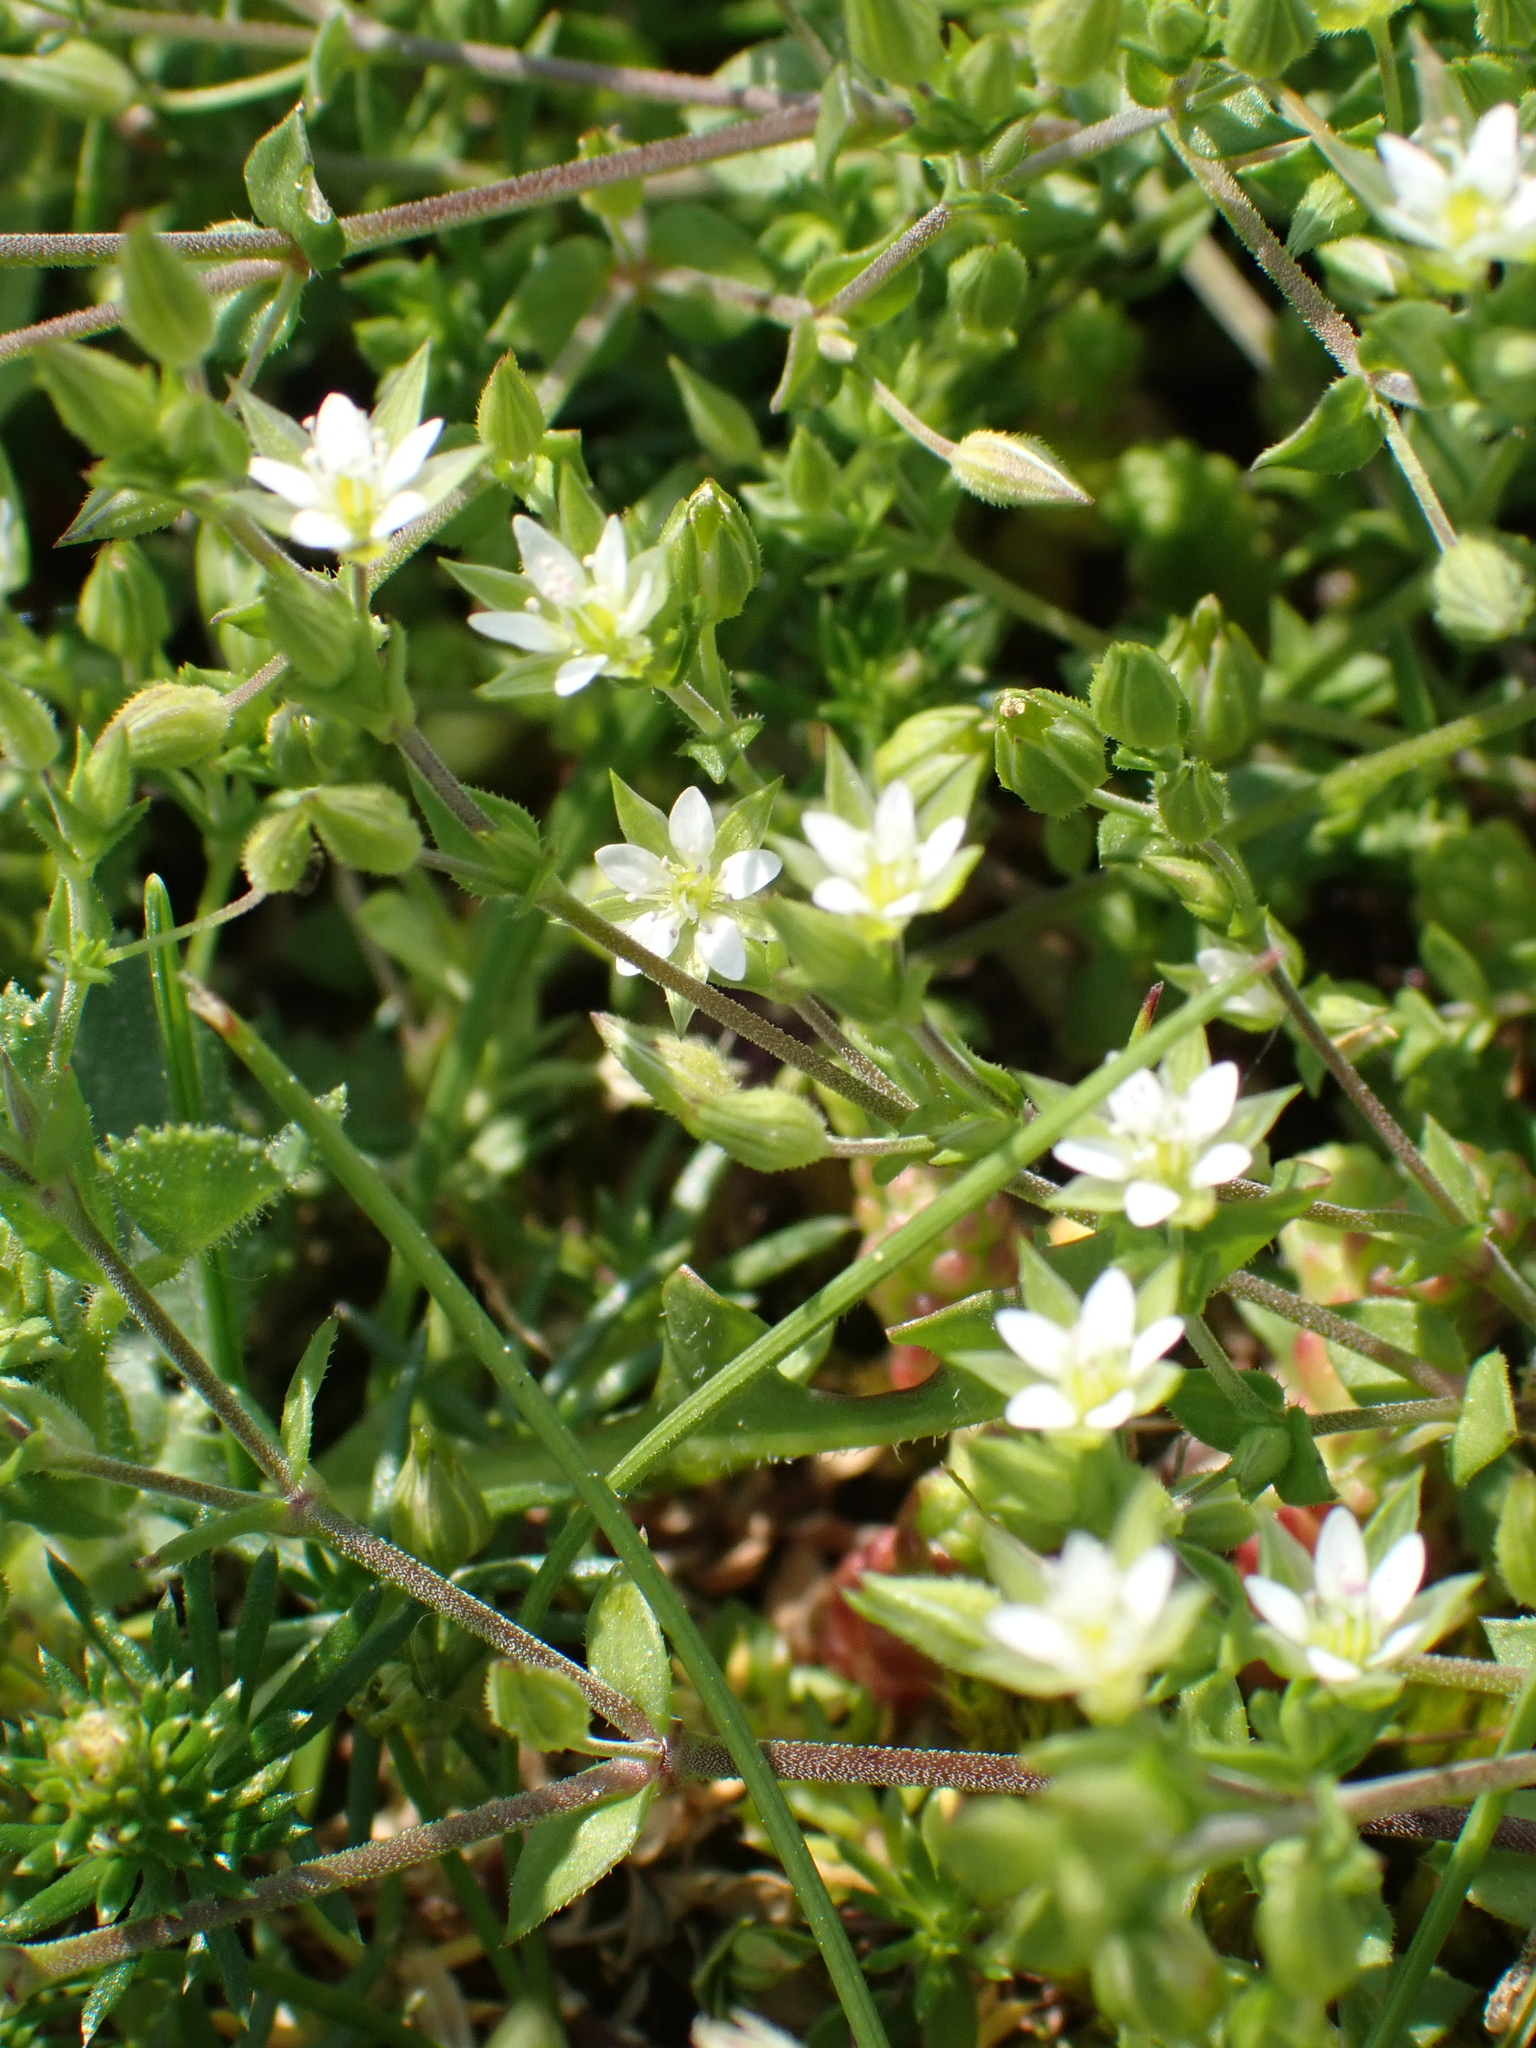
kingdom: Plantae
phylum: Tracheophyta
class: Magnoliopsida
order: Caryophyllales
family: Caryophyllaceae
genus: Arenaria
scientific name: Arenaria serpyllifolia
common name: Thyme-leaved sandwort
